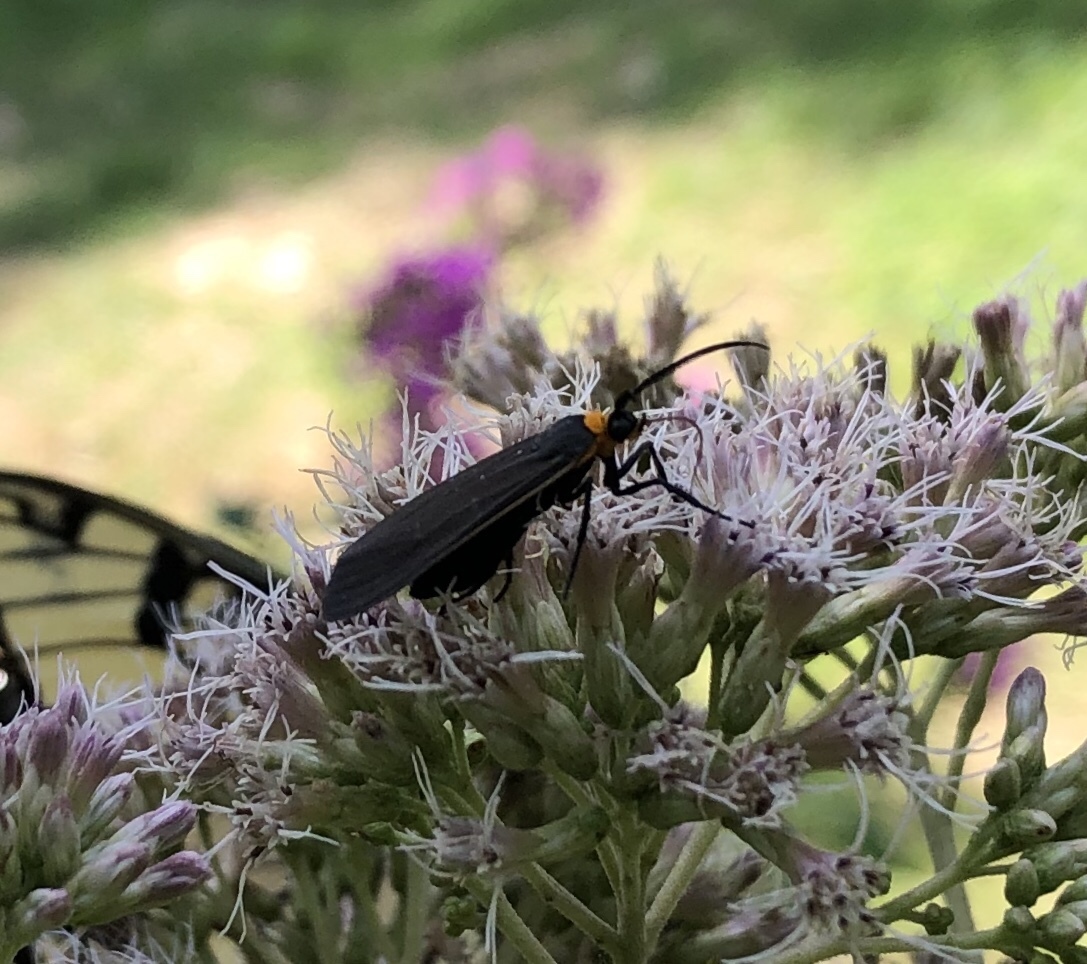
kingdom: Animalia
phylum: Arthropoda
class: Insecta
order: Lepidoptera
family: Erebidae
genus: Cisseps
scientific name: Cisseps fulvicollis
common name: Yellow-collared scape moth
